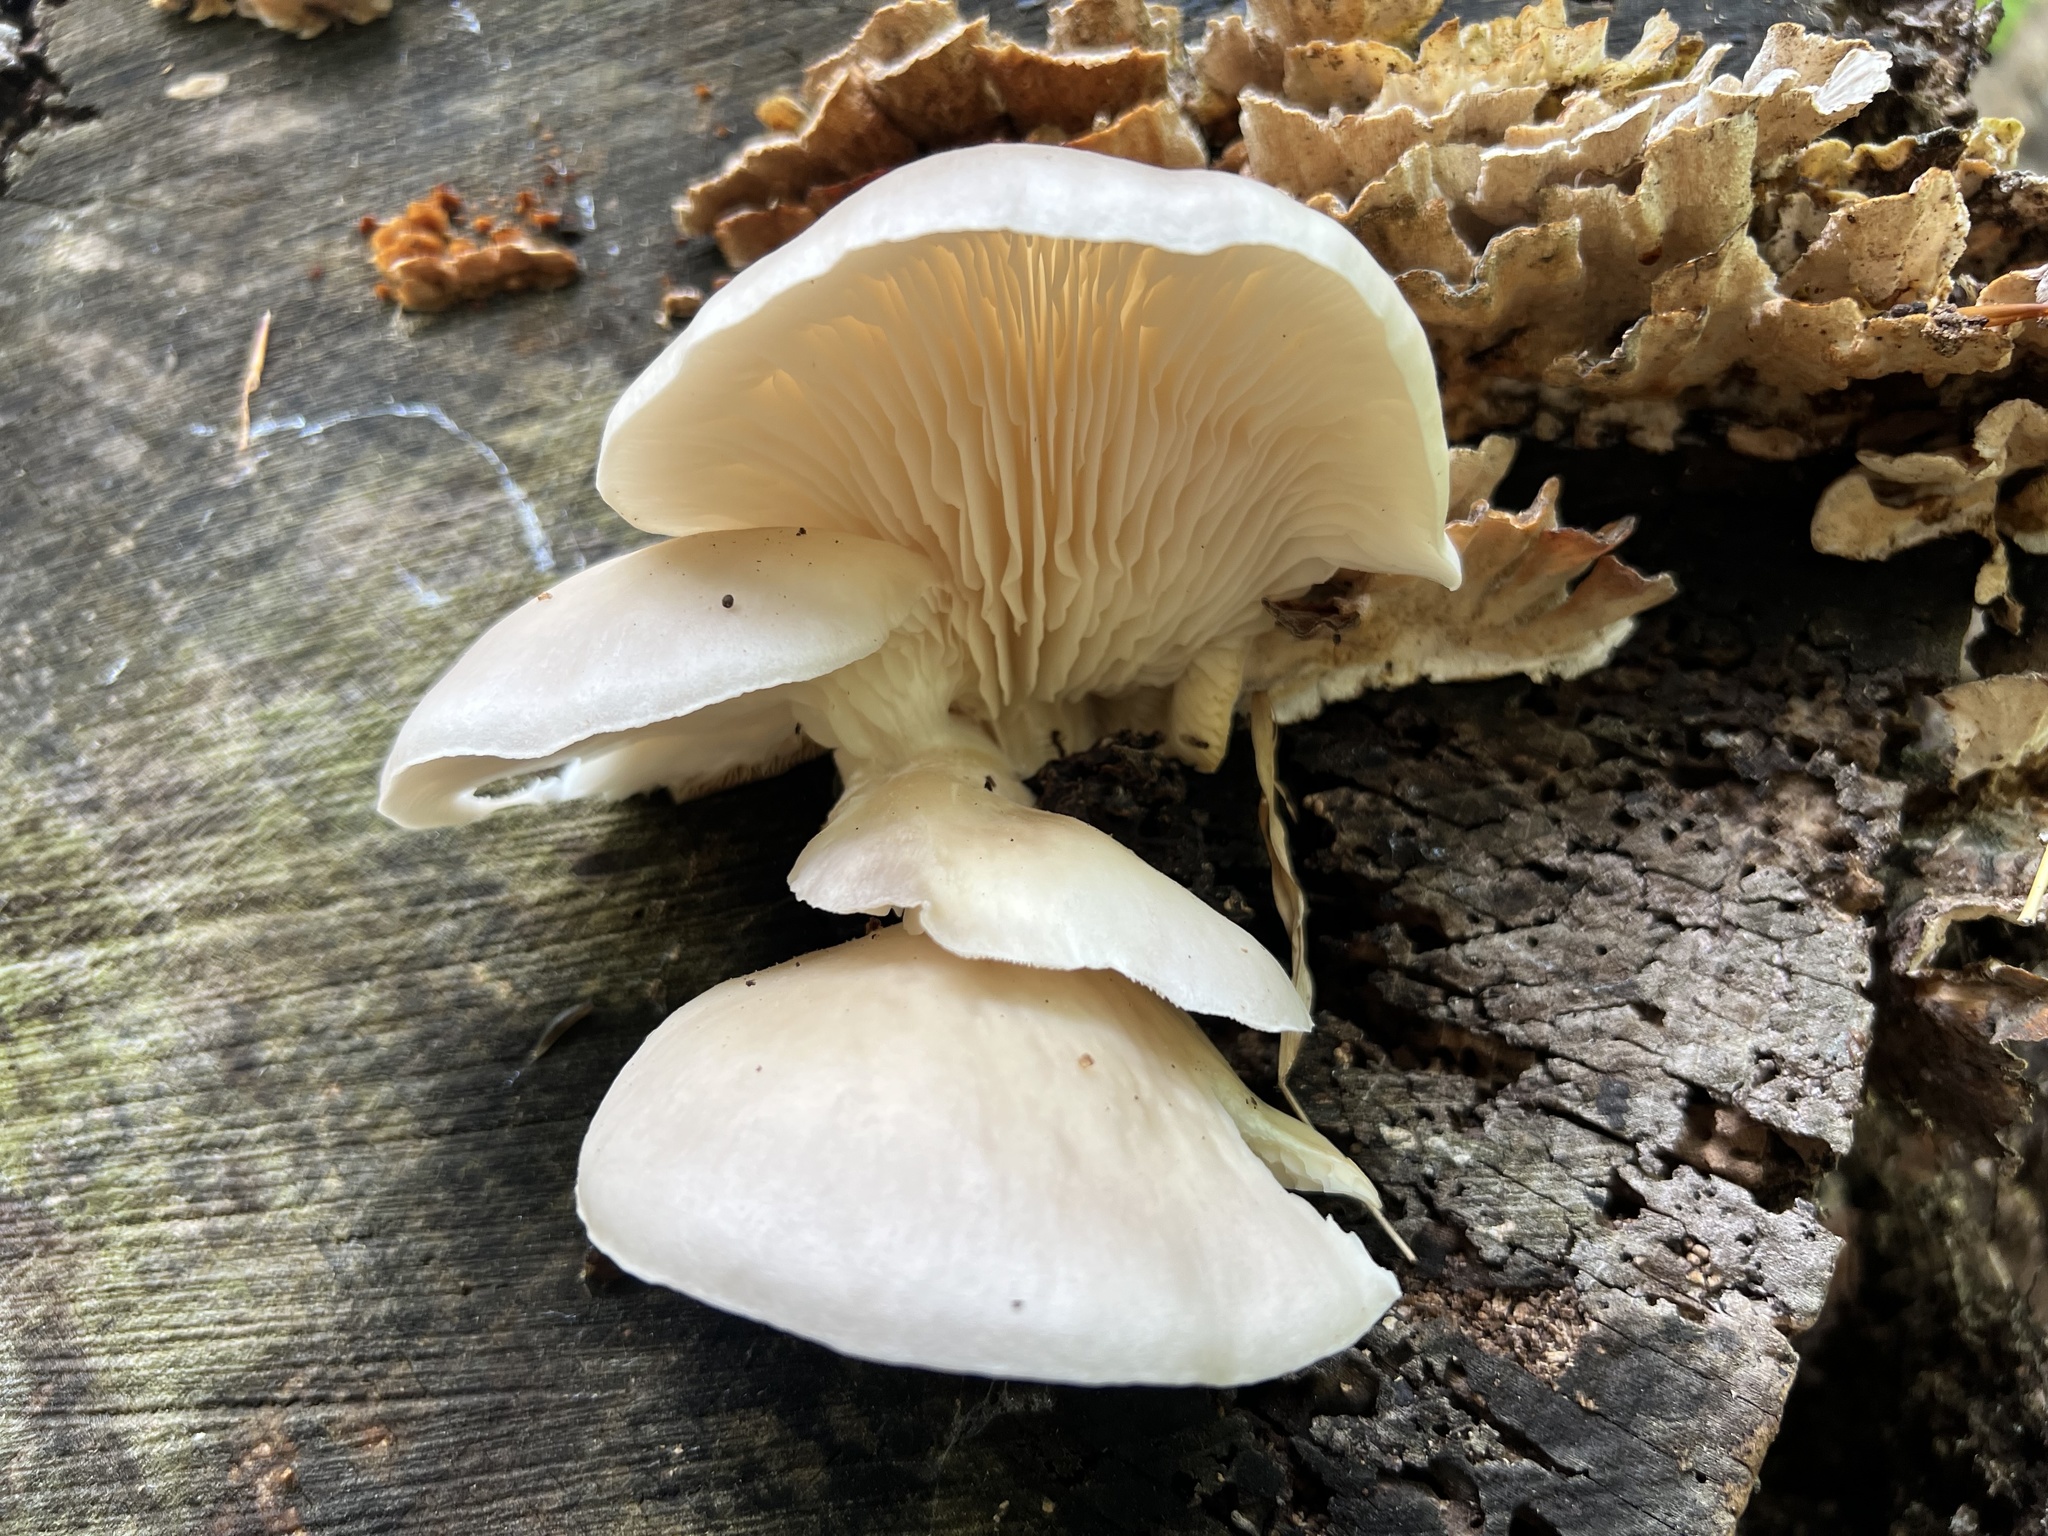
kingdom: Fungi
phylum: Basidiomycota
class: Agaricomycetes
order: Agaricales
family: Pleurotaceae
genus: Pleurotus
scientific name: Pleurotus ostreatus
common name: Oyster mushroom
